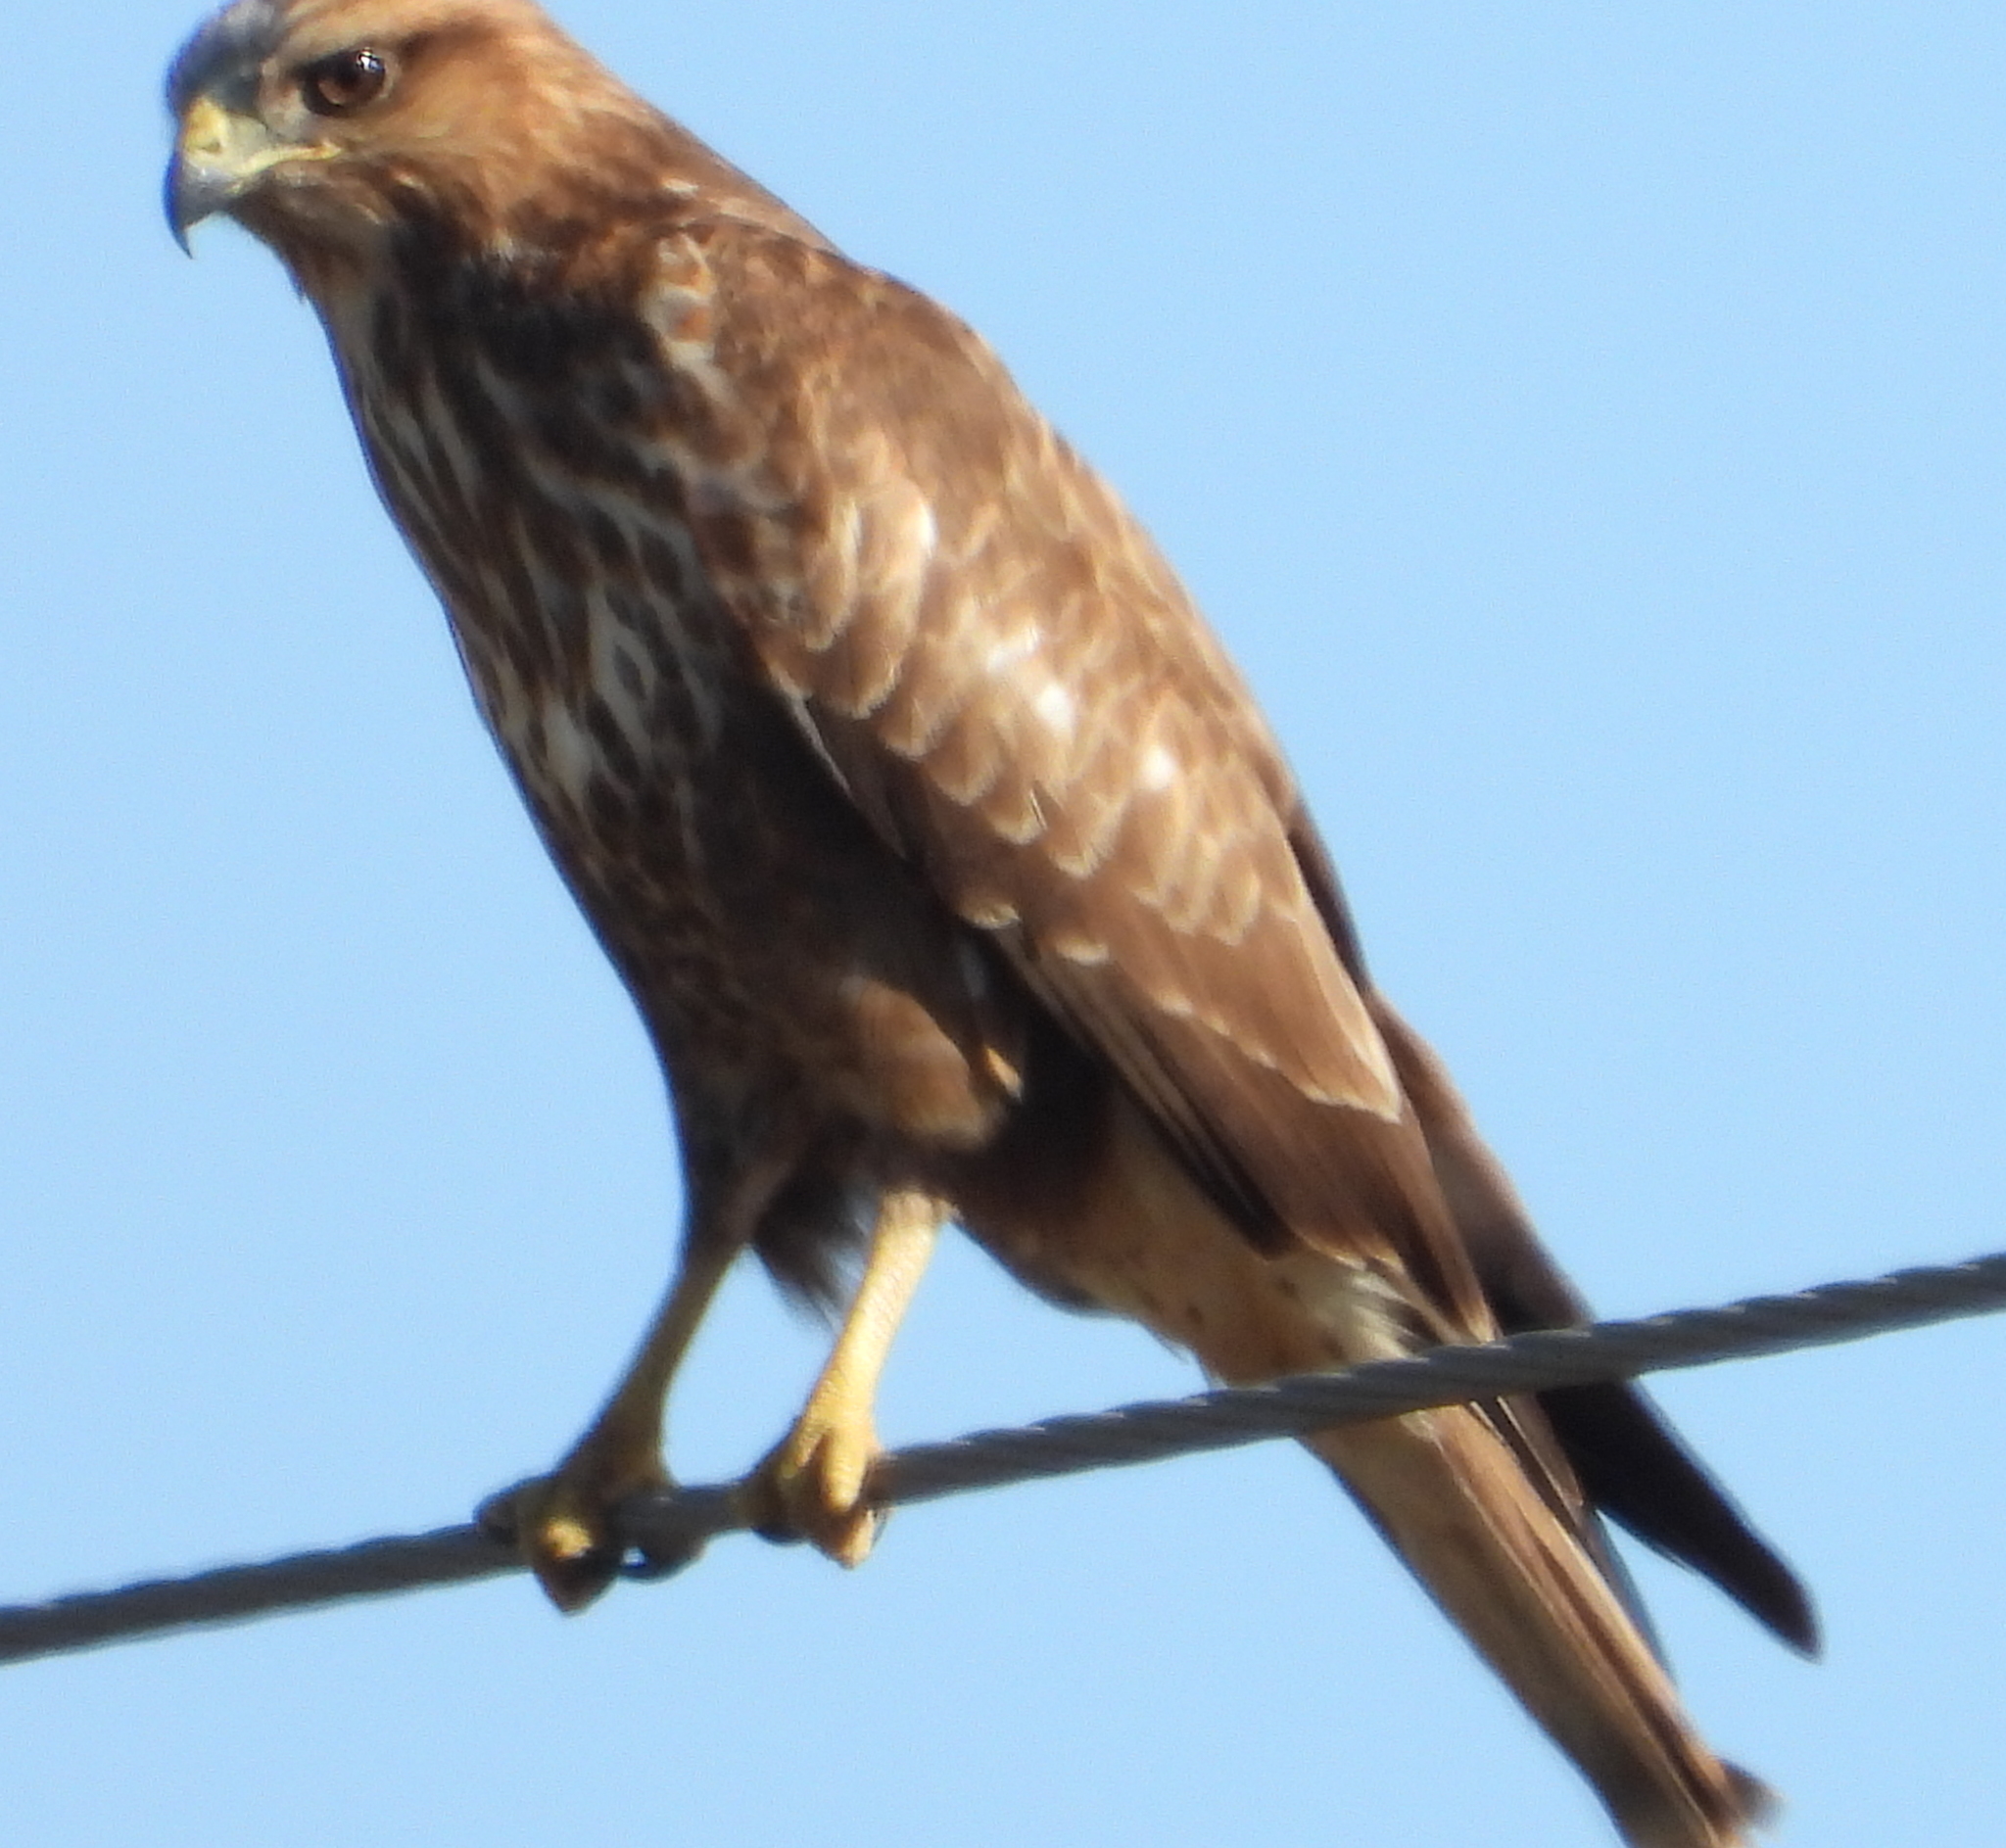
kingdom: Animalia
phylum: Chordata
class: Aves
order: Accipitriformes
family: Accipitridae
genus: Buteo
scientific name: Buteo buteo
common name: Common buzzard
